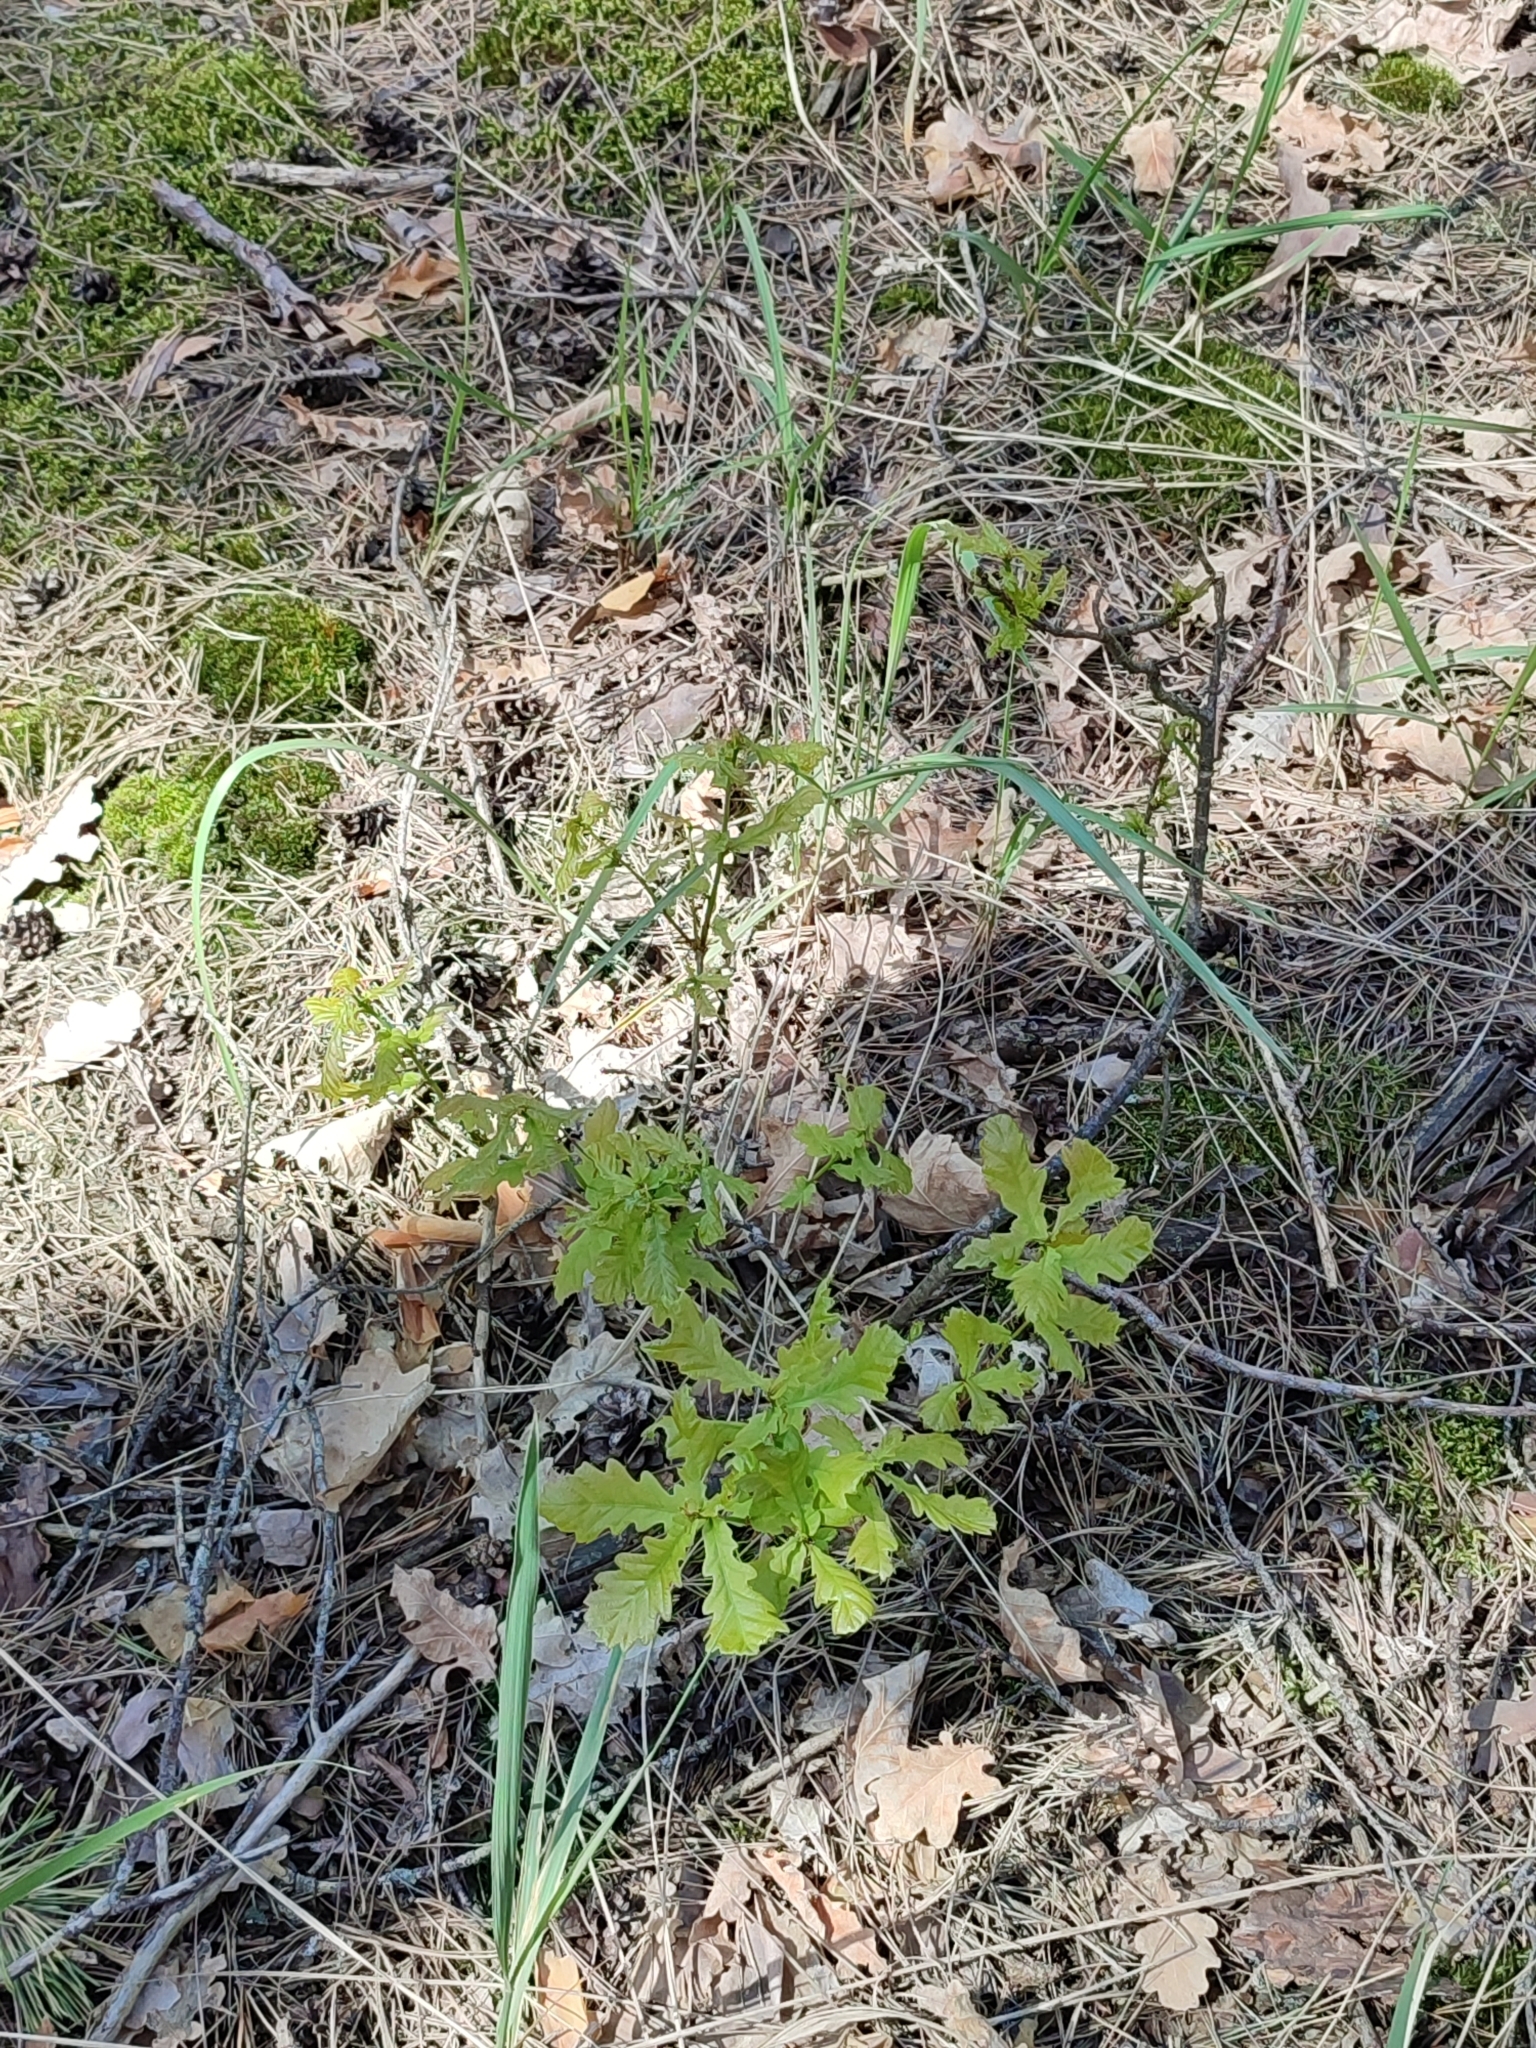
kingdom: Plantae
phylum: Tracheophyta
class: Magnoliopsida
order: Fagales
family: Fagaceae
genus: Quercus
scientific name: Quercus robur
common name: Pedunculate oak
